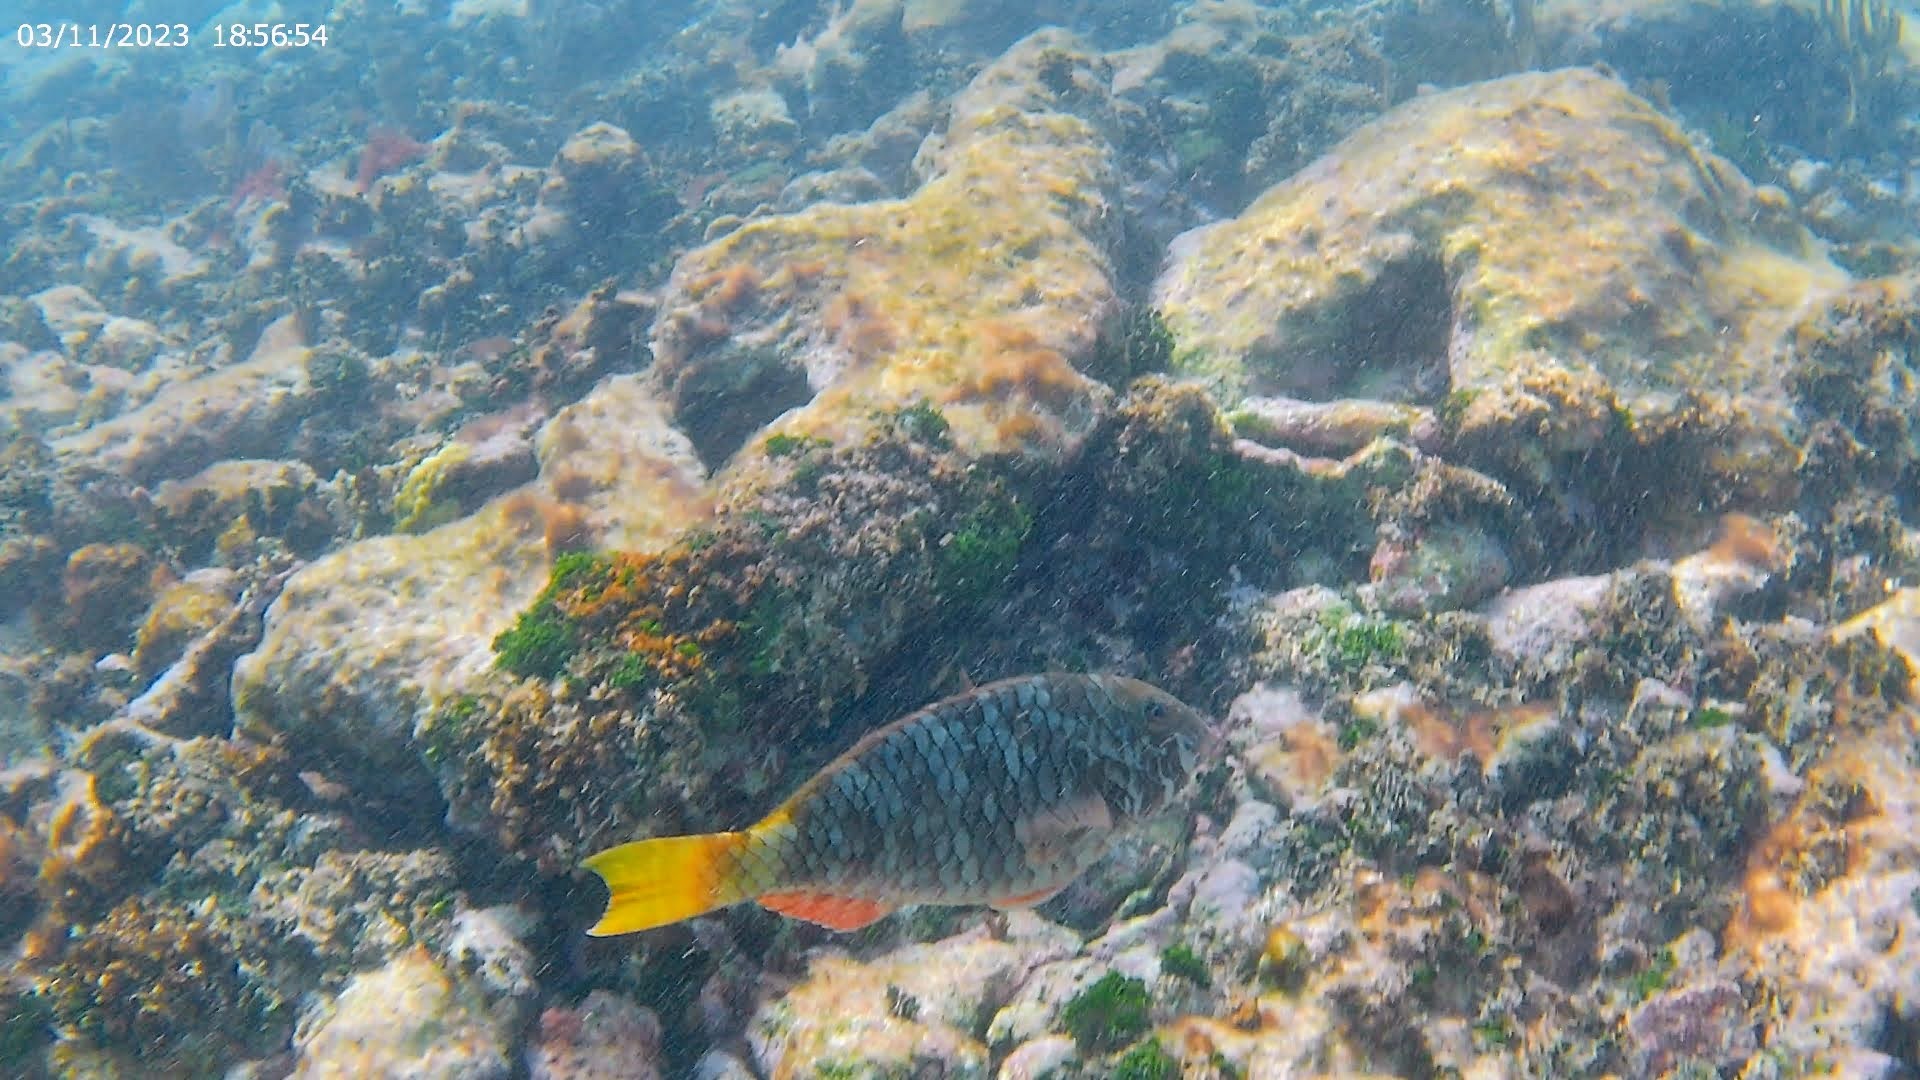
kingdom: Animalia
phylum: Chordata
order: Perciformes
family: Scaridae
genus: Sparisoma
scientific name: Sparisoma rubripinne
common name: Redfin parrotfish
